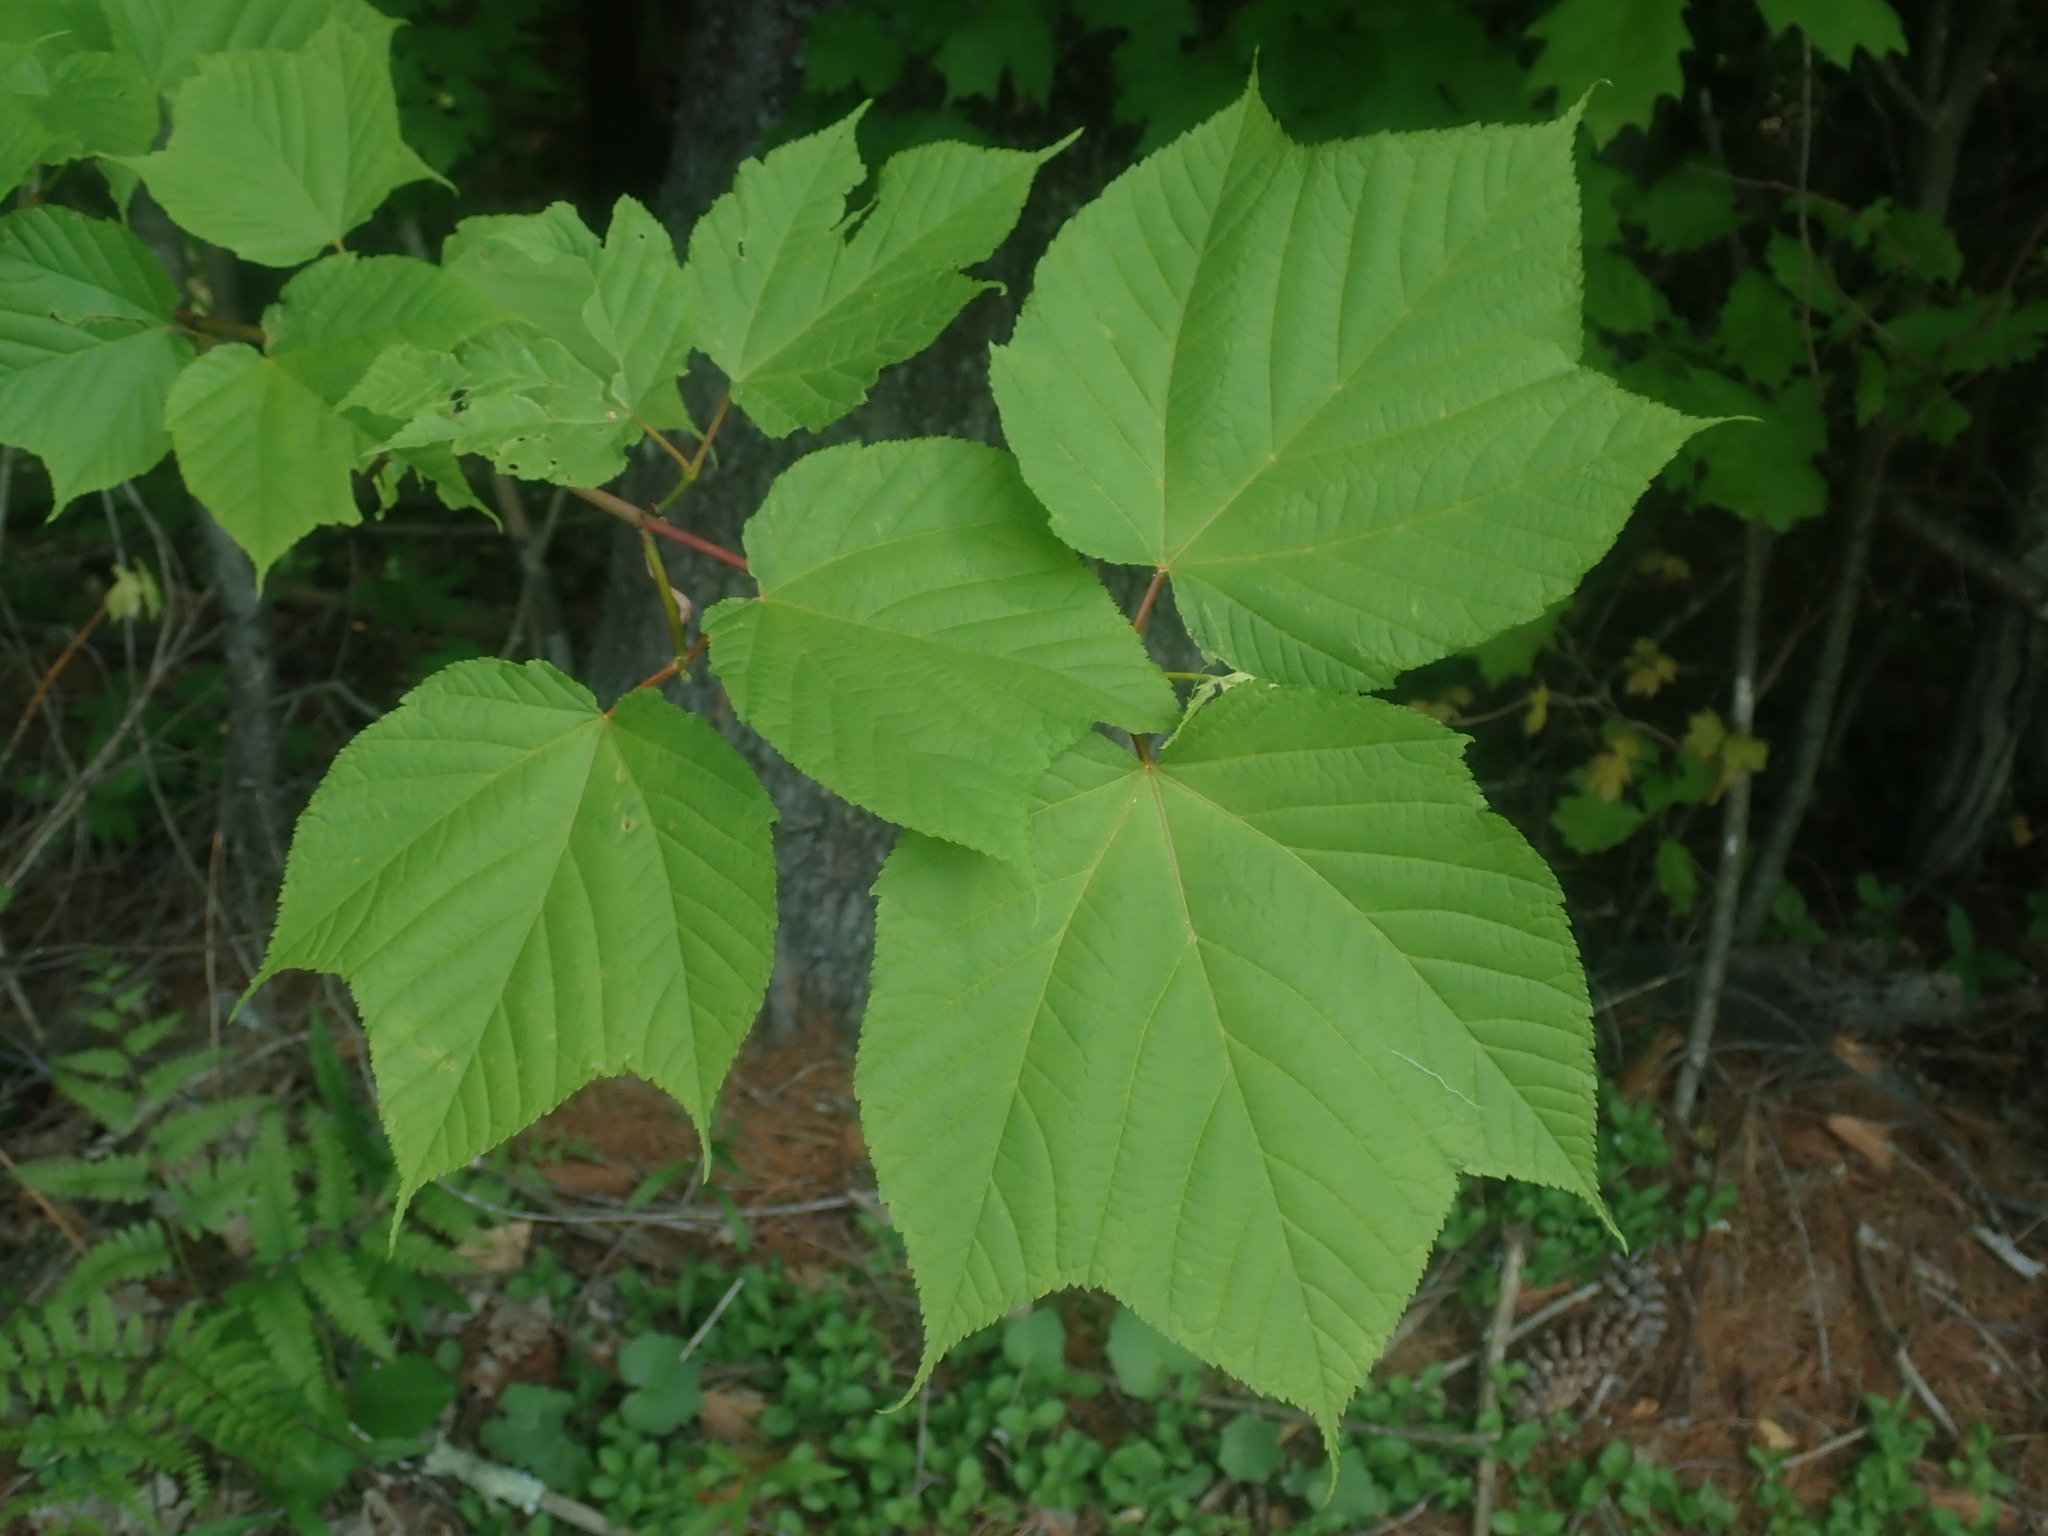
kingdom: Plantae
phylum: Tracheophyta
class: Magnoliopsida
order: Sapindales
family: Sapindaceae
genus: Acer
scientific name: Acer pensylvanicum
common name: Moosewood
